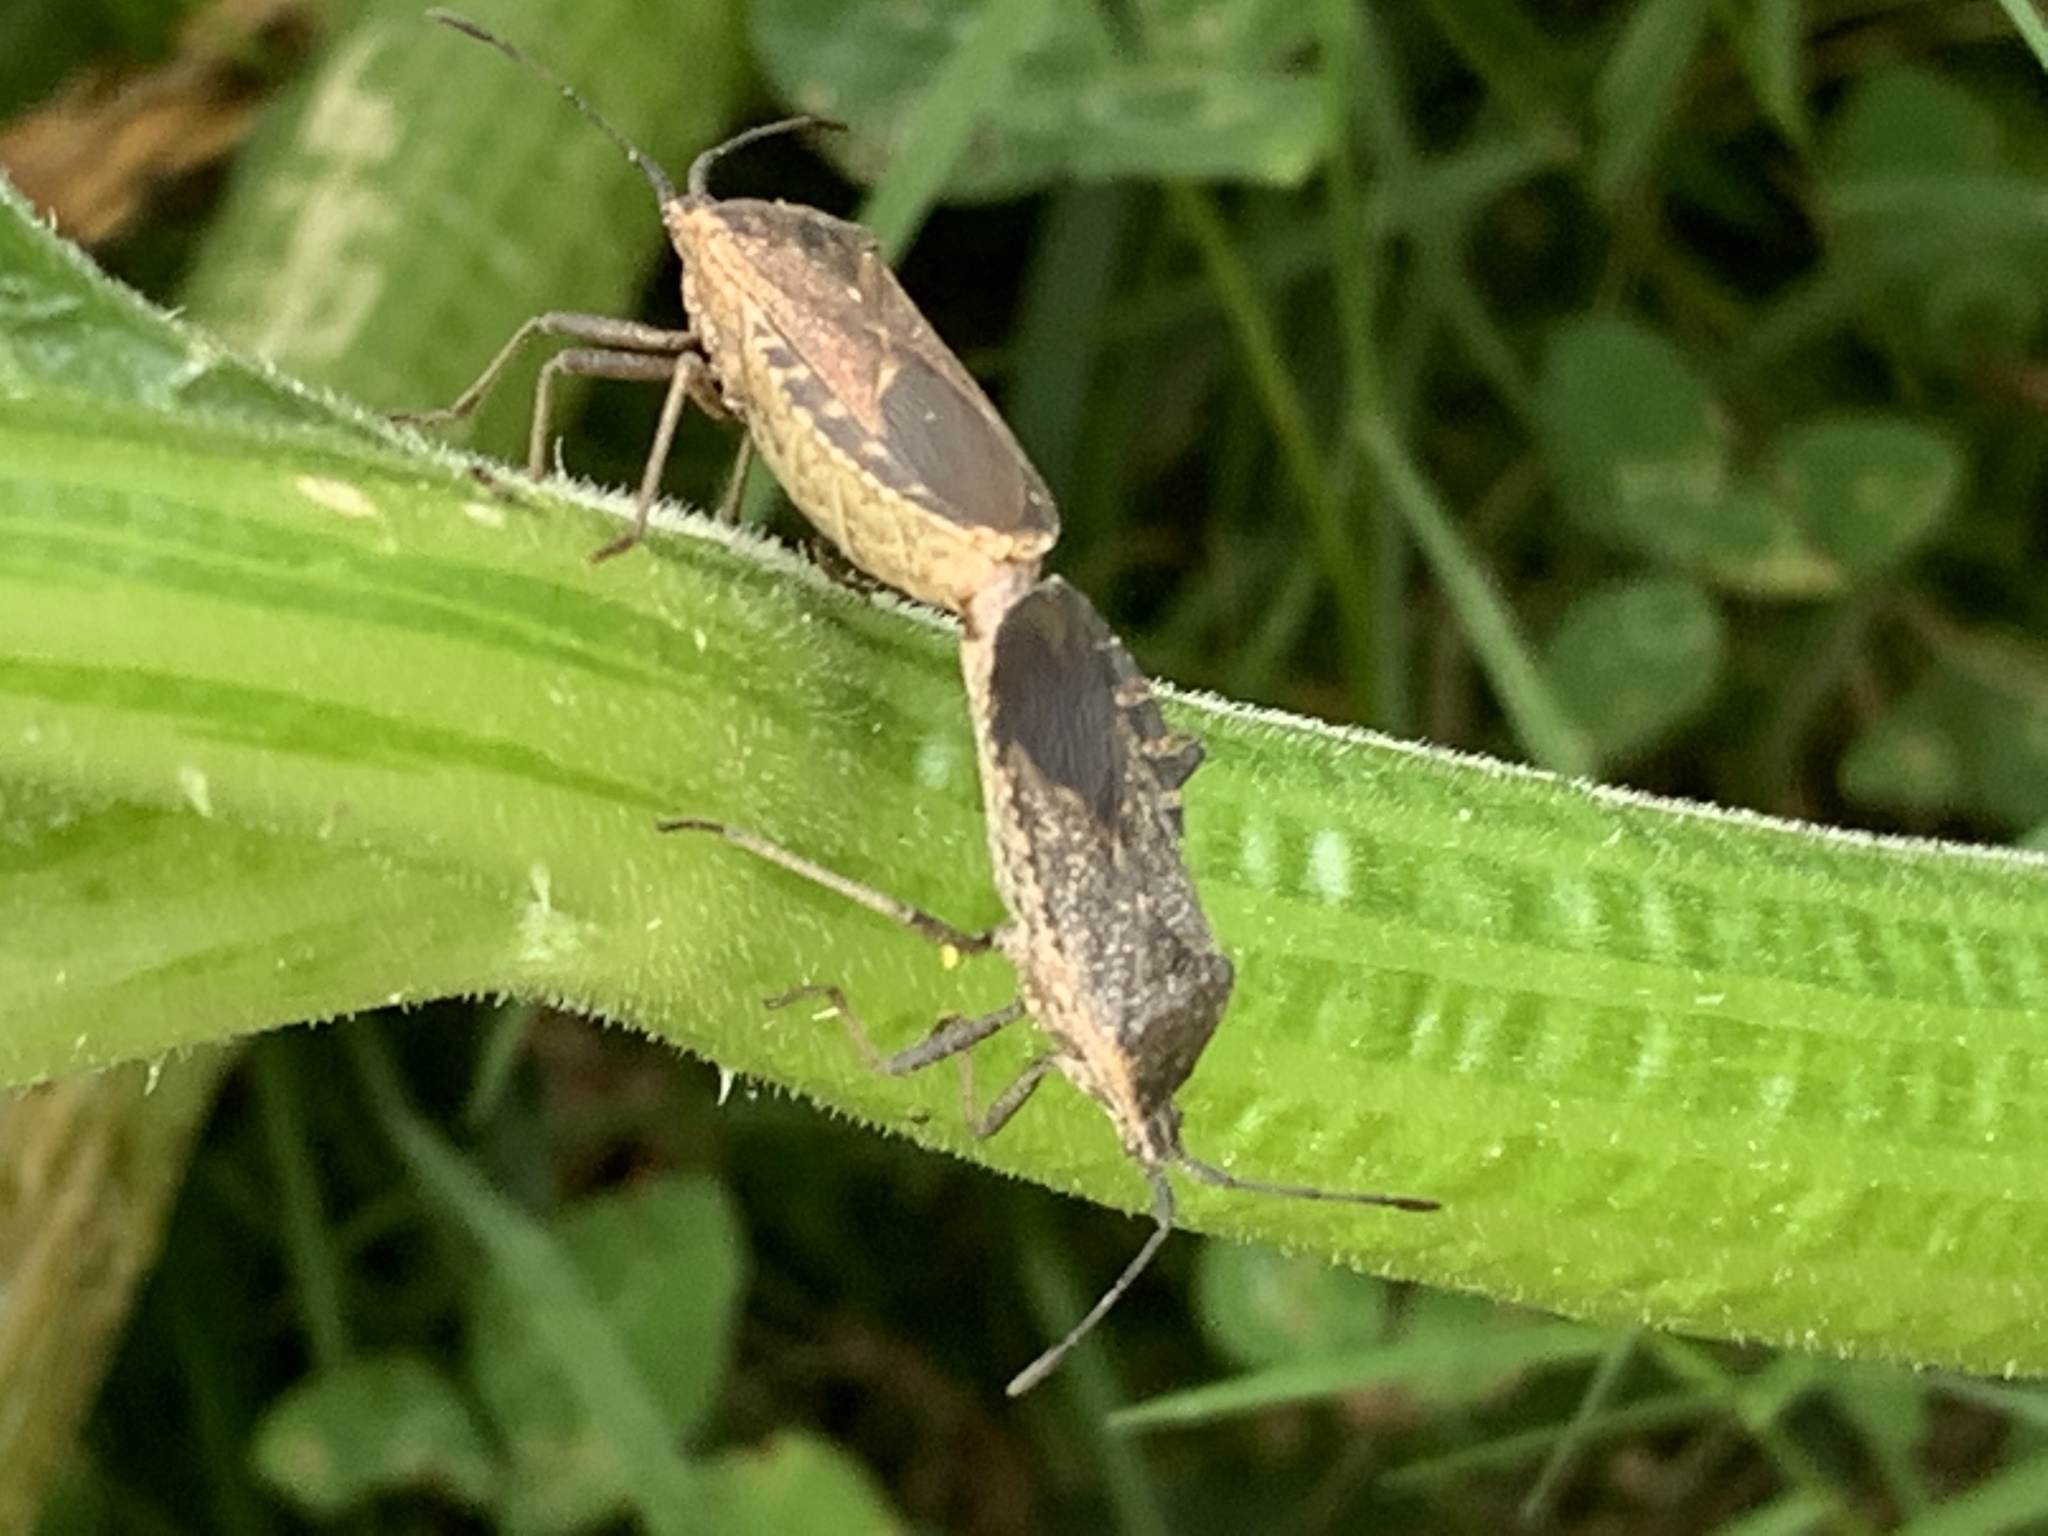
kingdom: Animalia
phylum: Arthropoda
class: Insecta
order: Hemiptera
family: Coreidae
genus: Anasa
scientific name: Anasa tristis
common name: Squash bug
